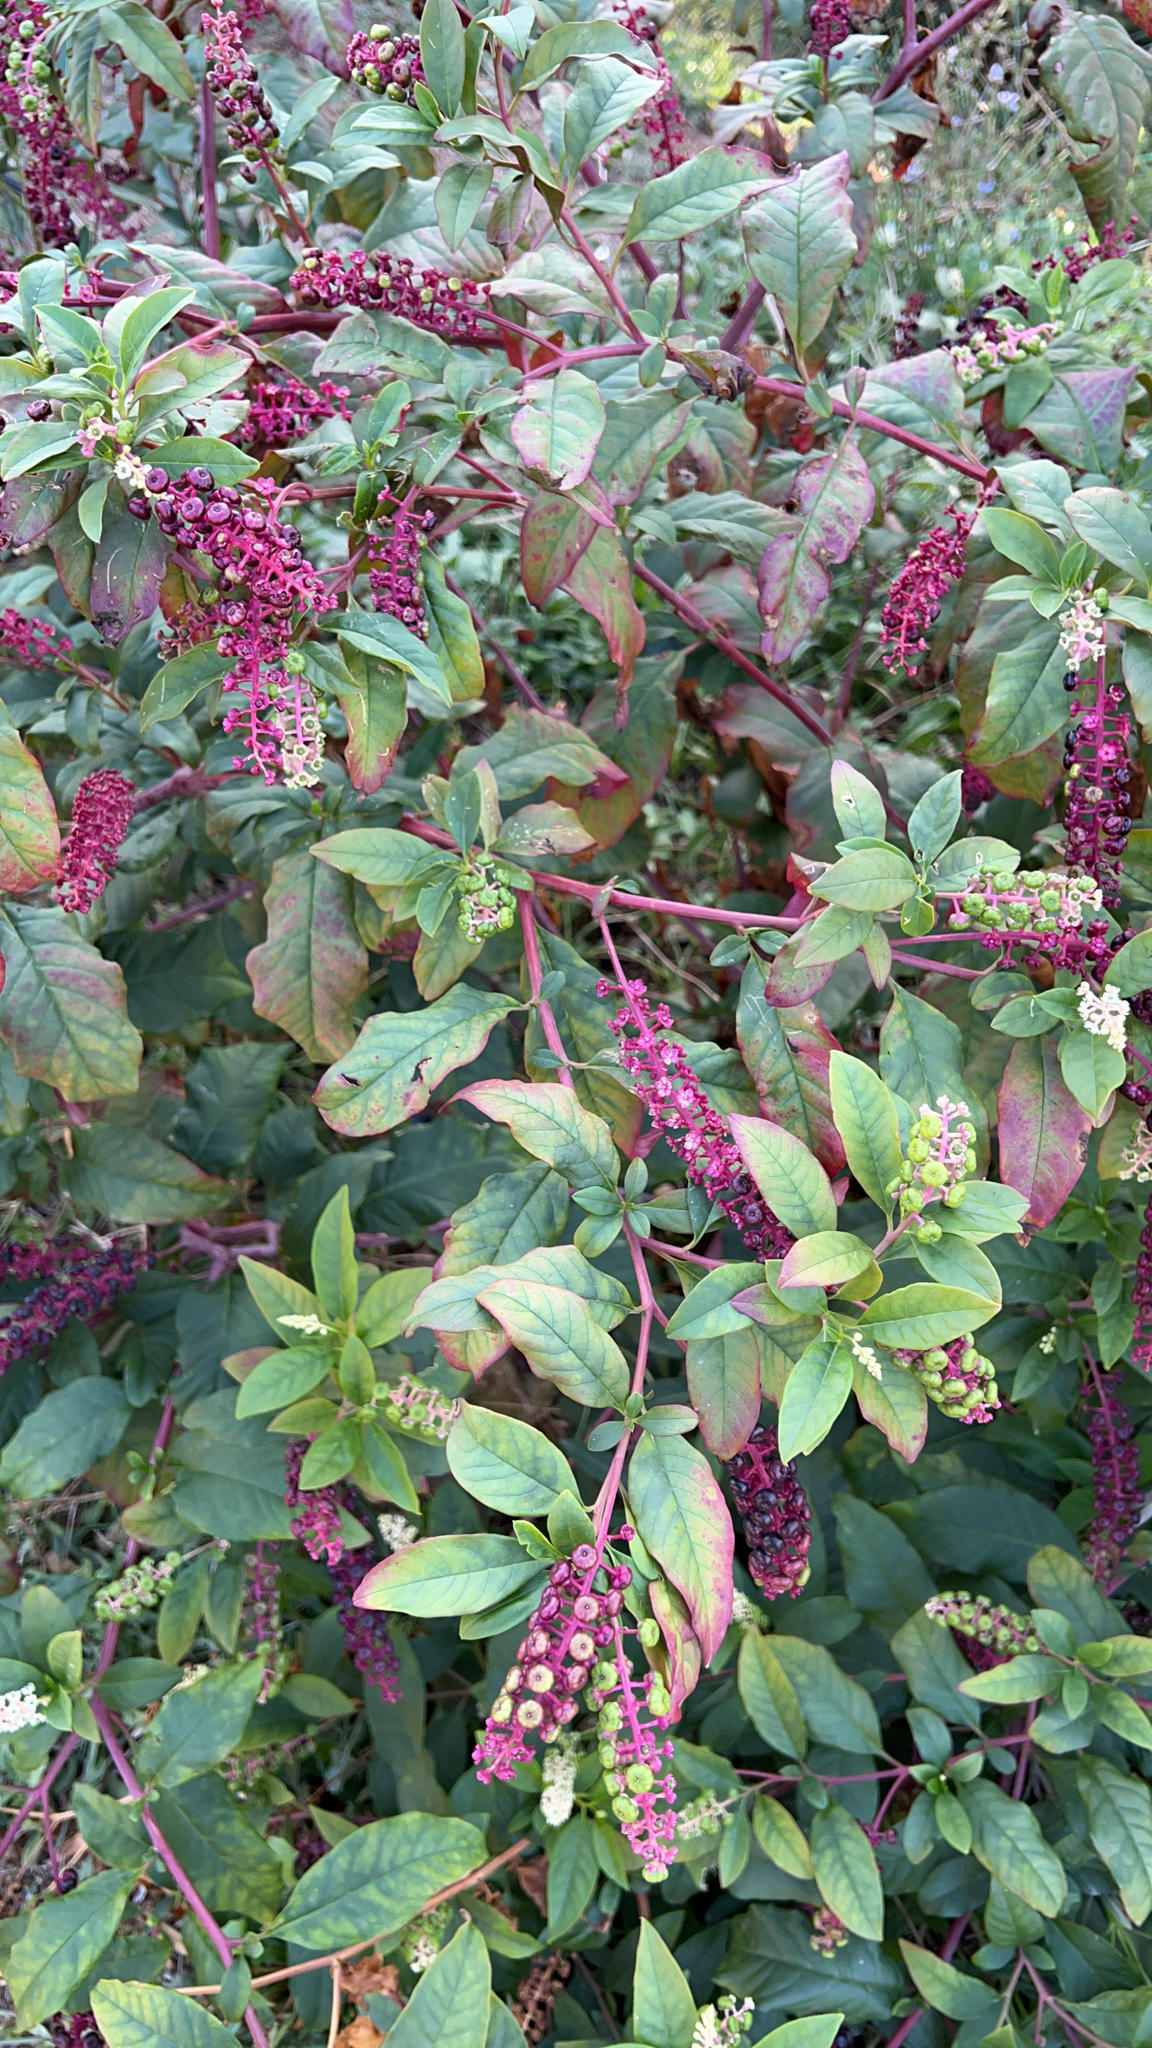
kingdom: Plantae
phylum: Tracheophyta
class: Magnoliopsida
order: Caryophyllales
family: Phytolaccaceae
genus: Phytolacca
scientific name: Phytolacca americana
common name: American pokeweed
